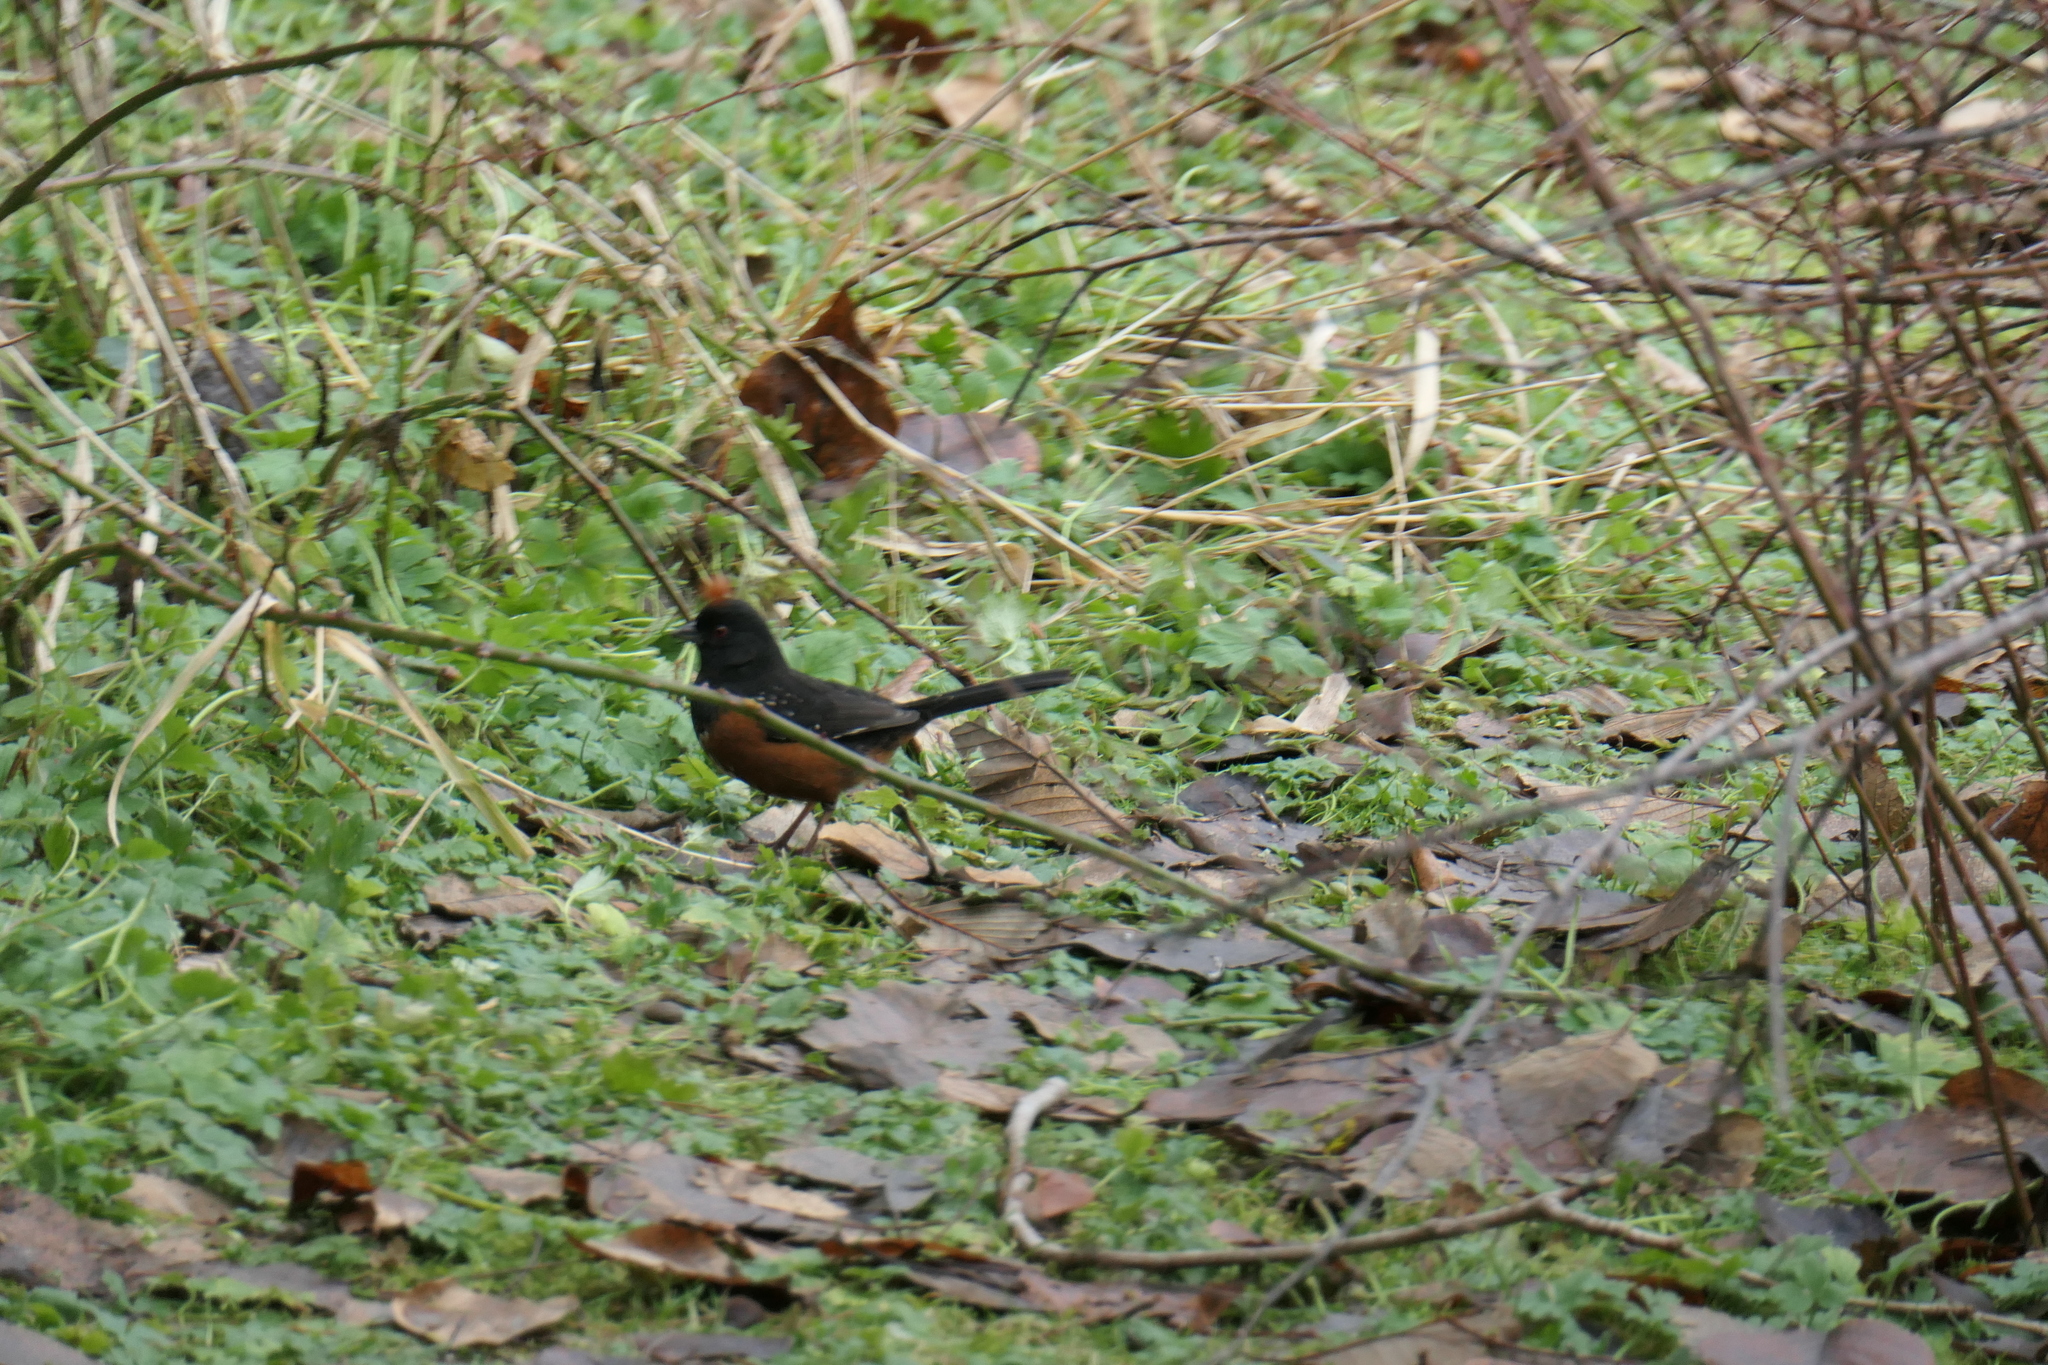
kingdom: Animalia
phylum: Chordata
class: Aves
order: Passeriformes
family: Passerellidae
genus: Pipilo
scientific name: Pipilo maculatus
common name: Spotted towhee
